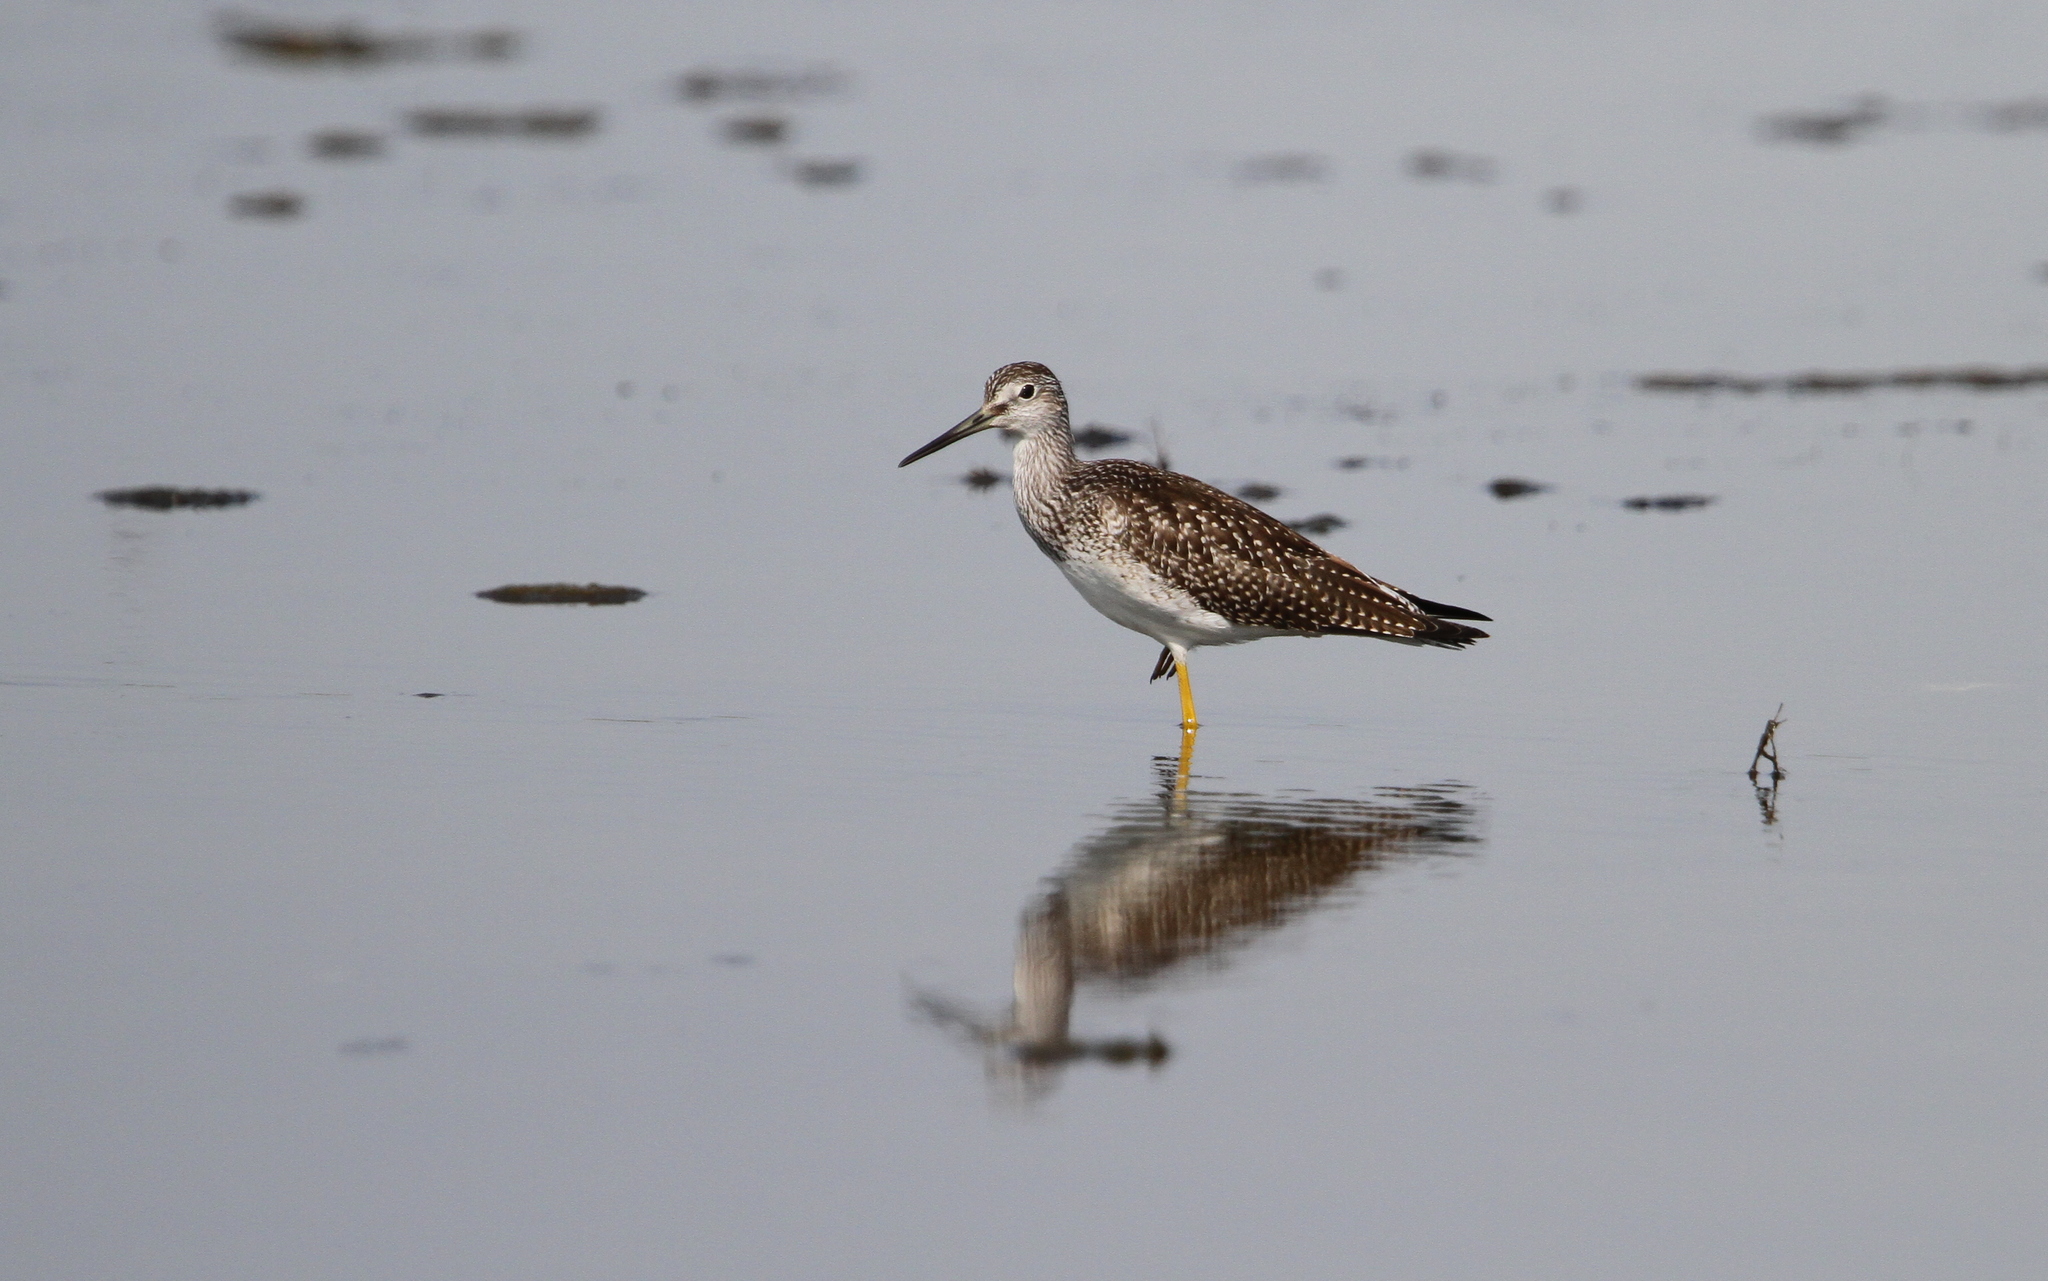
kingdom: Animalia
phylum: Chordata
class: Aves
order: Charadriiformes
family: Scolopacidae
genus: Tringa
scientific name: Tringa melanoleuca
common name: Greater yellowlegs
